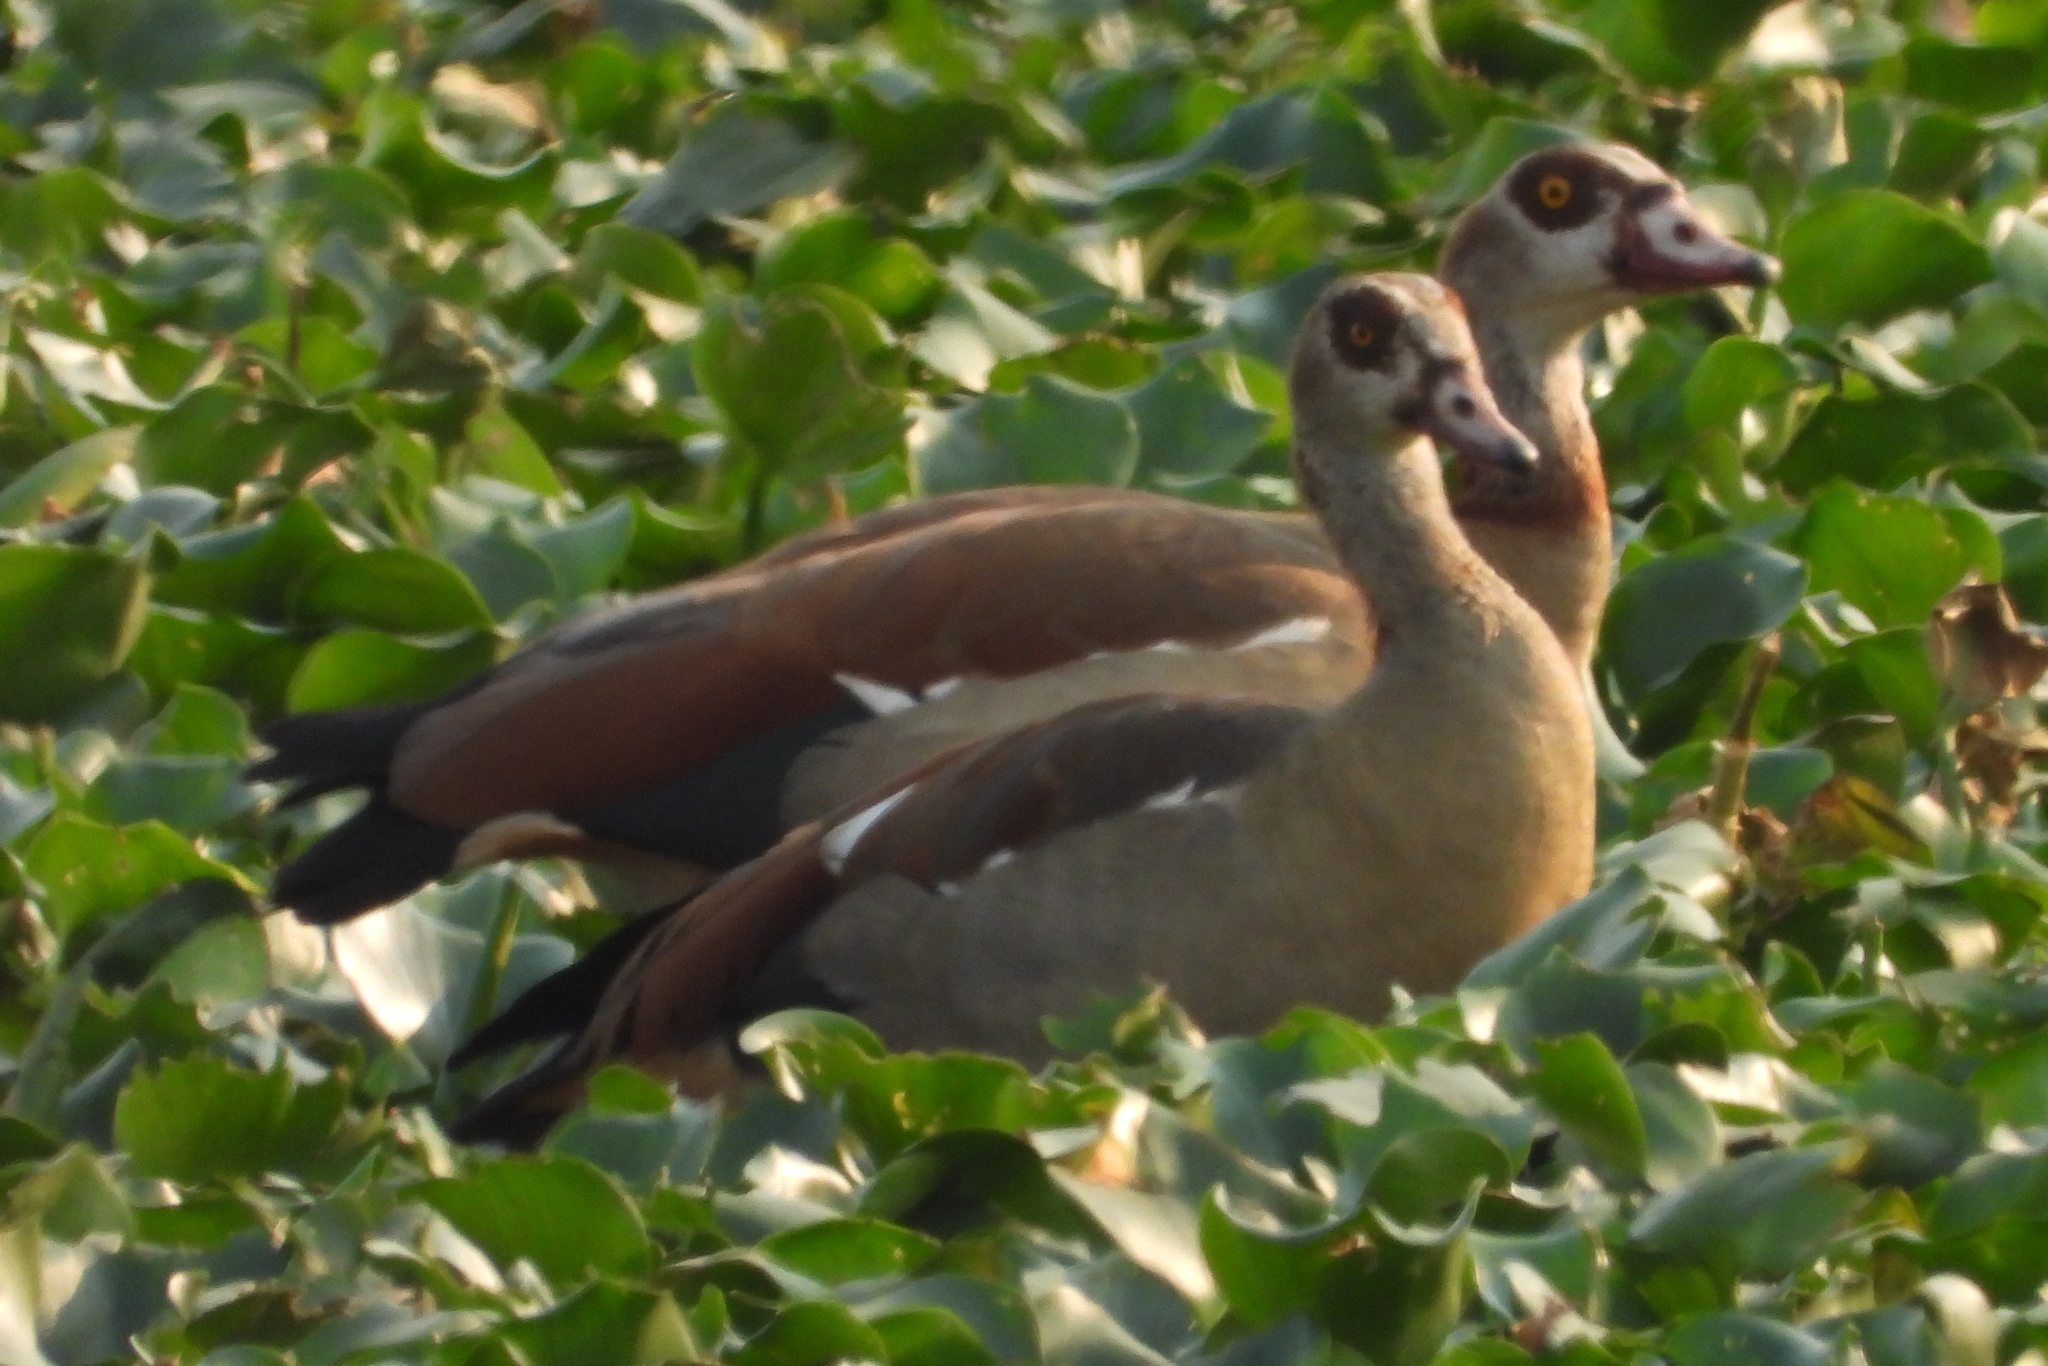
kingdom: Animalia
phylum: Chordata
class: Aves
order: Anseriformes
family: Anatidae
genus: Alopochen
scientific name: Alopochen aegyptiaca
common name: Egyptian goose
